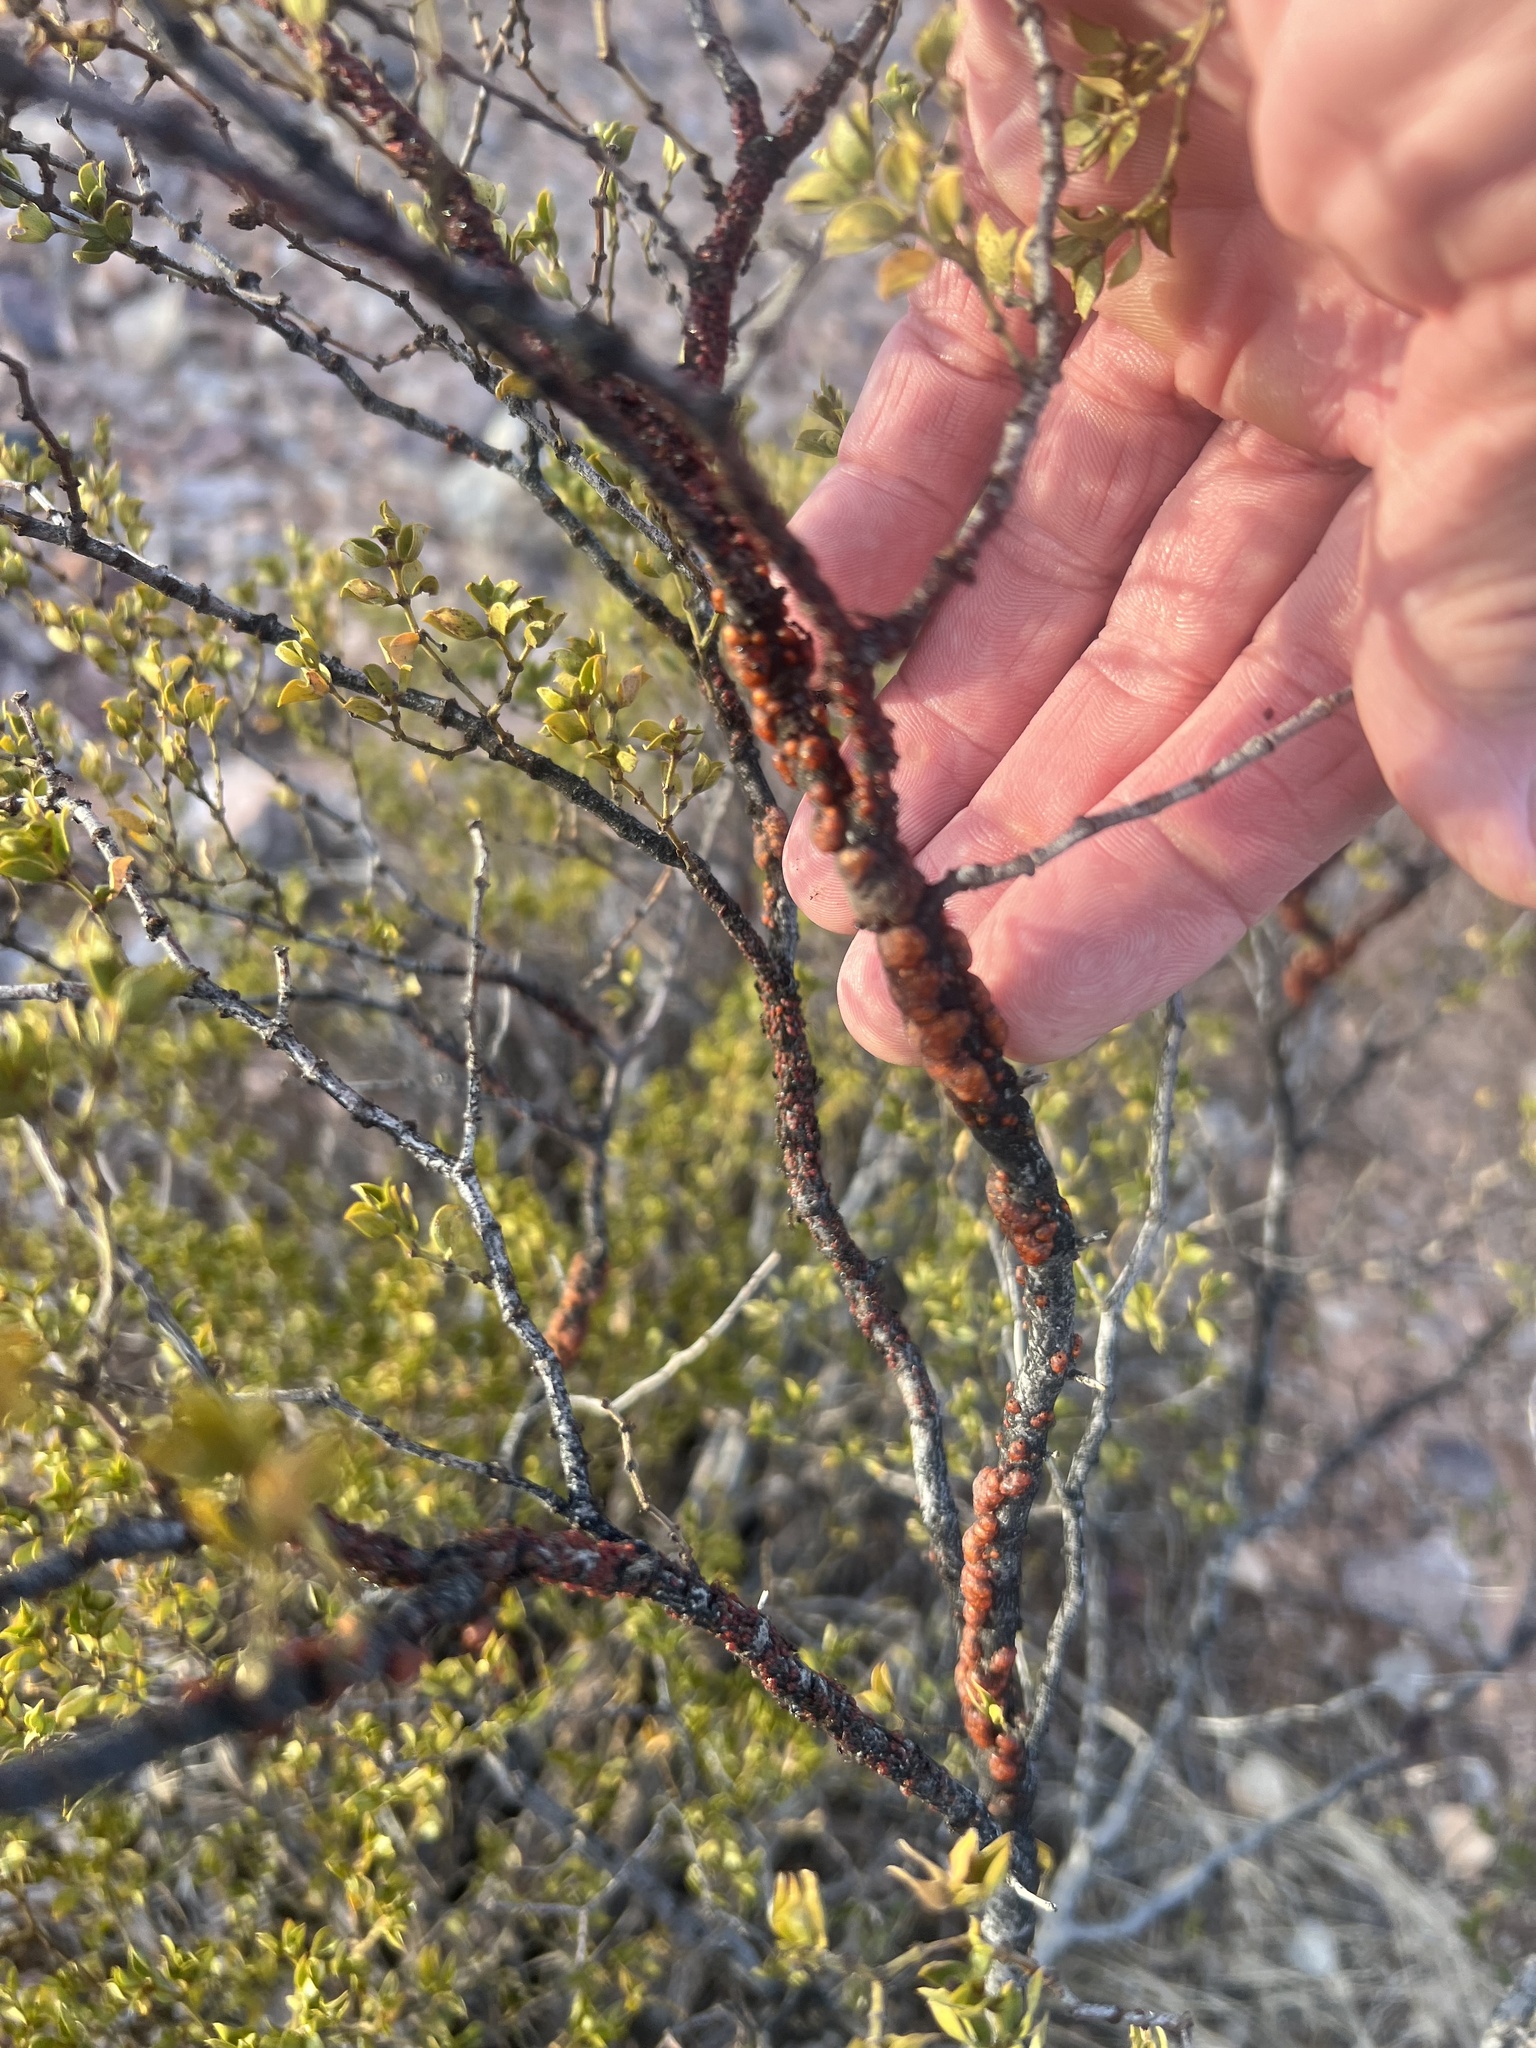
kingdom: Animalia
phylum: Arthropoda
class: Insecta
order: Hemiptera
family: Kerriidae
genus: Tachardiella
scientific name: Tachardiella larreae
